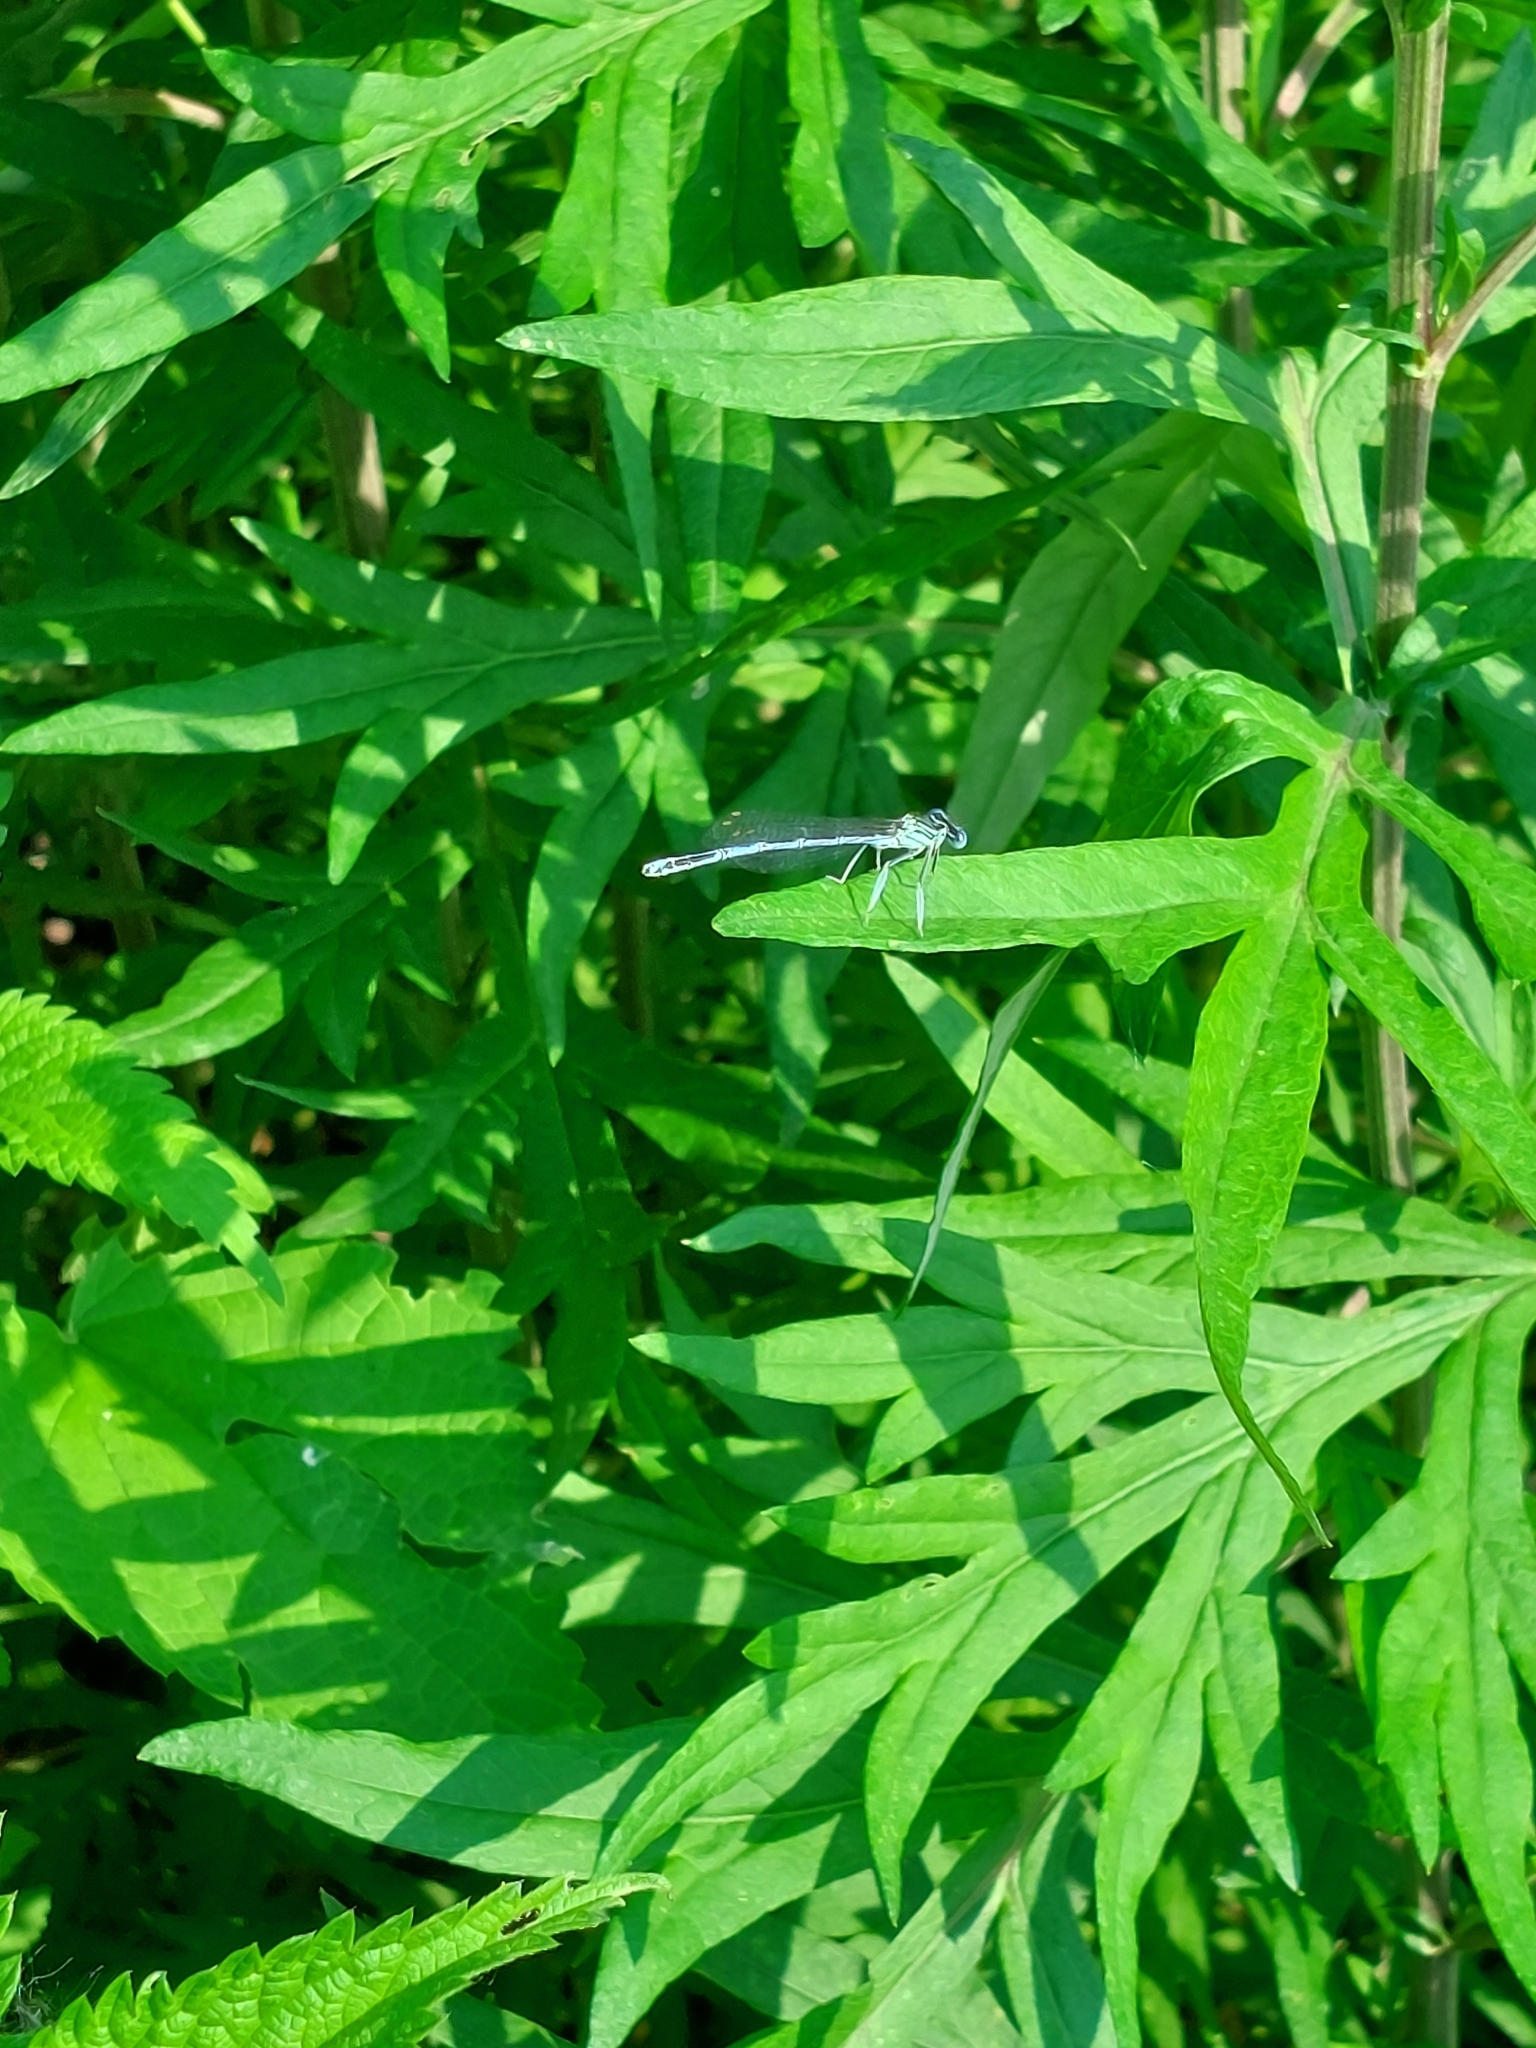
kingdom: Plantae
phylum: Tracheophyta
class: Magnoliopsida
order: Asterales
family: Asteraceae
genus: Artemisia
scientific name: Artemisia verlotiorum
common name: Chinese mugwort
